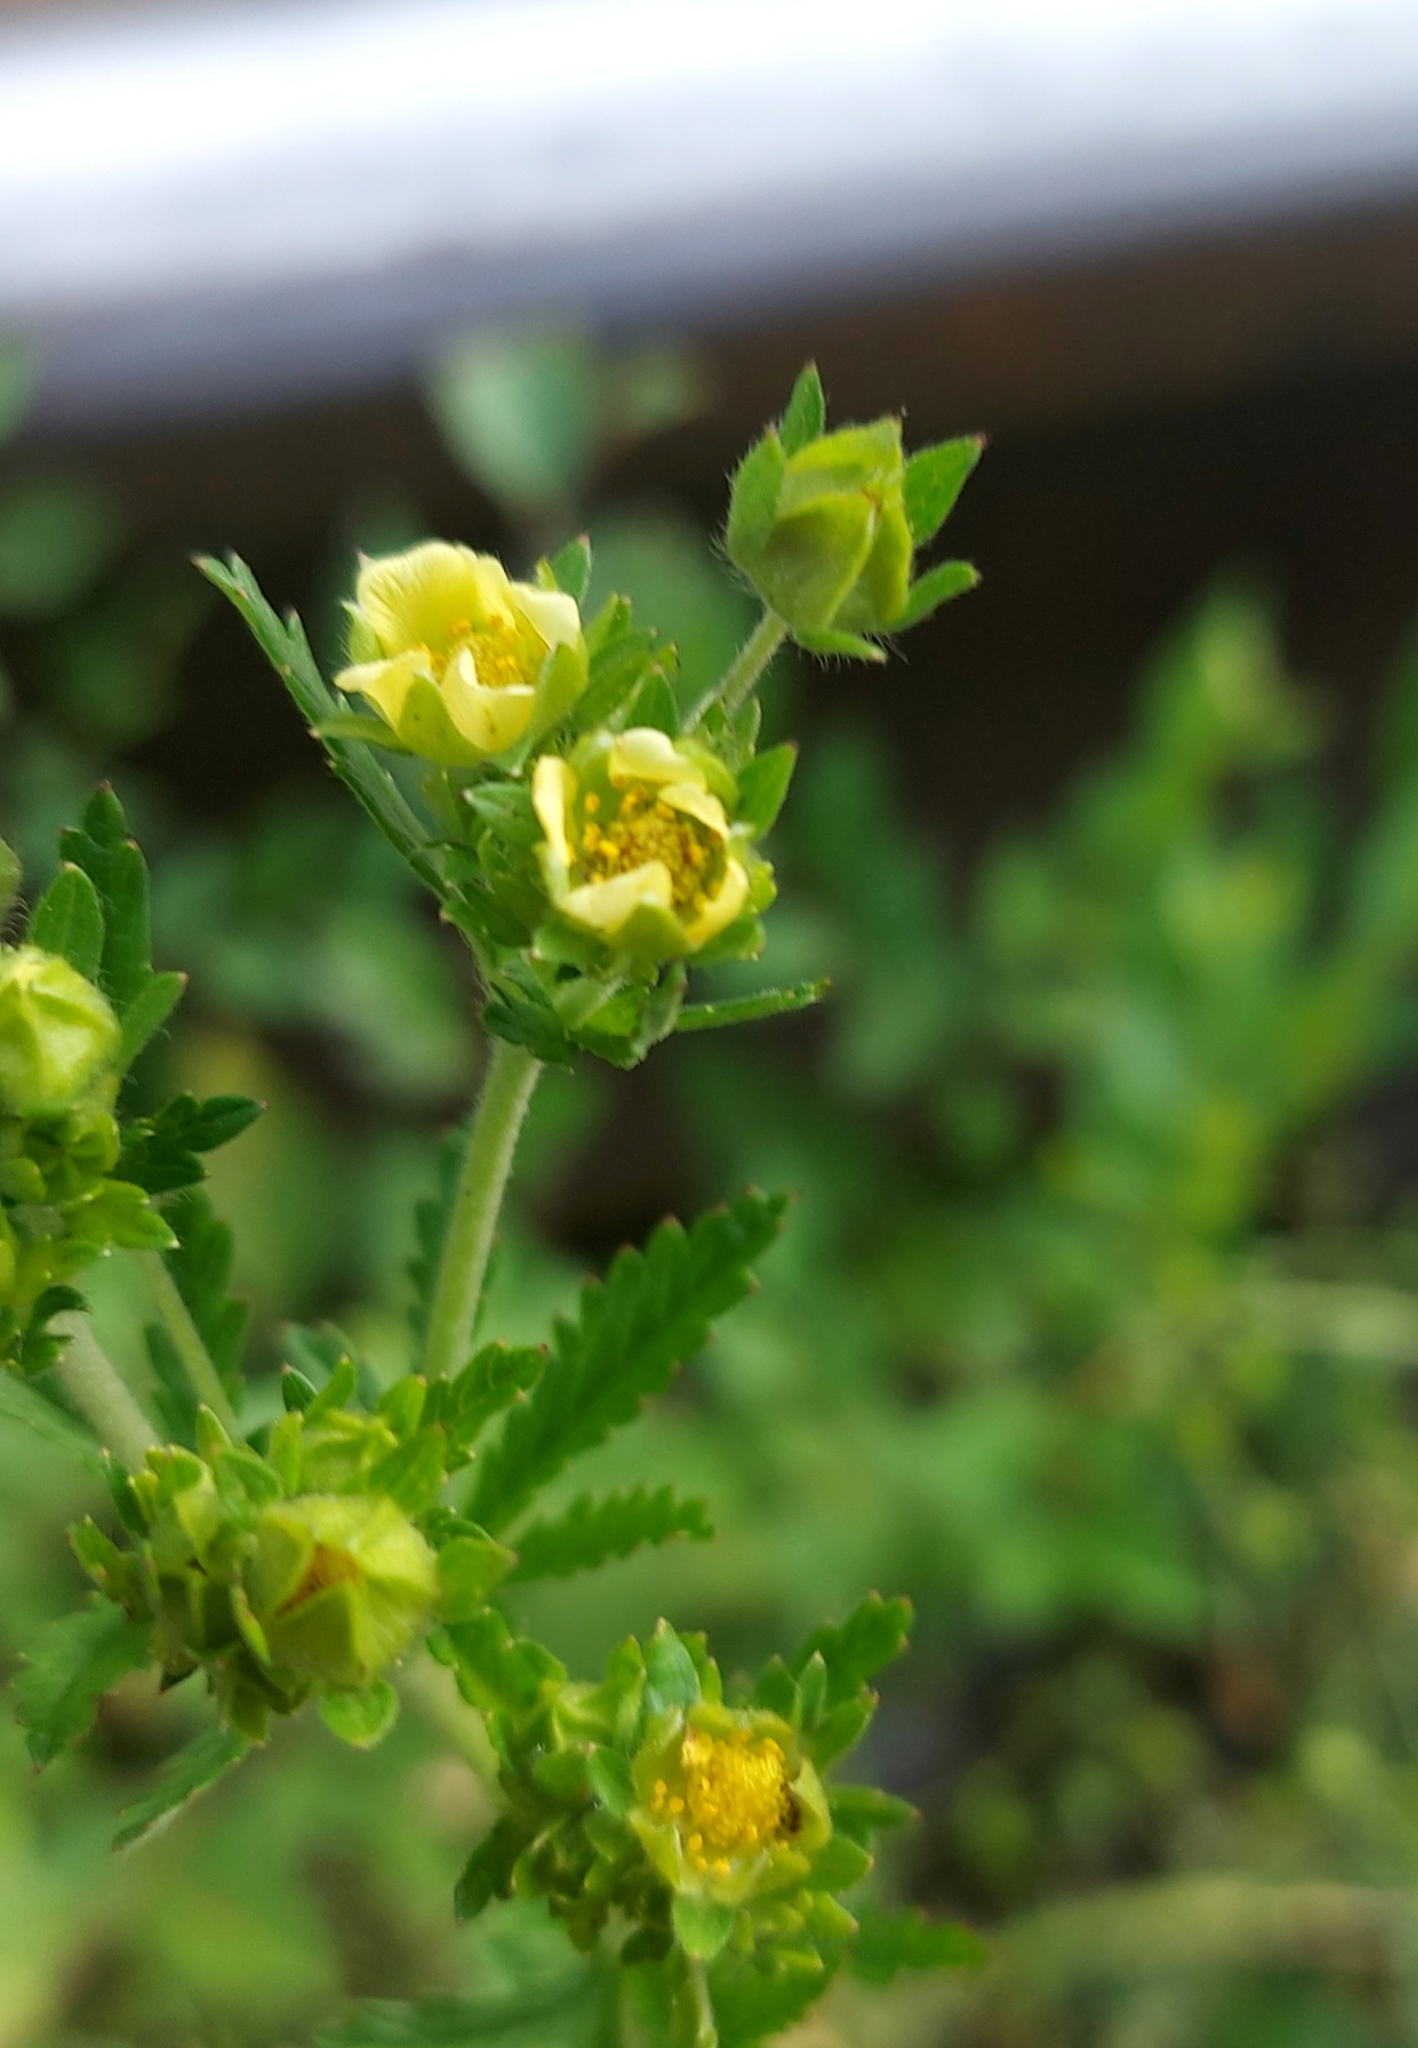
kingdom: Plantae
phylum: Tracheophyta
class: Magnoliopsida
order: Rosales
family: Rosaceae
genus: Potentilla
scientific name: Potentilla norvegica
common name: Ternate-leaved cinquefoil
